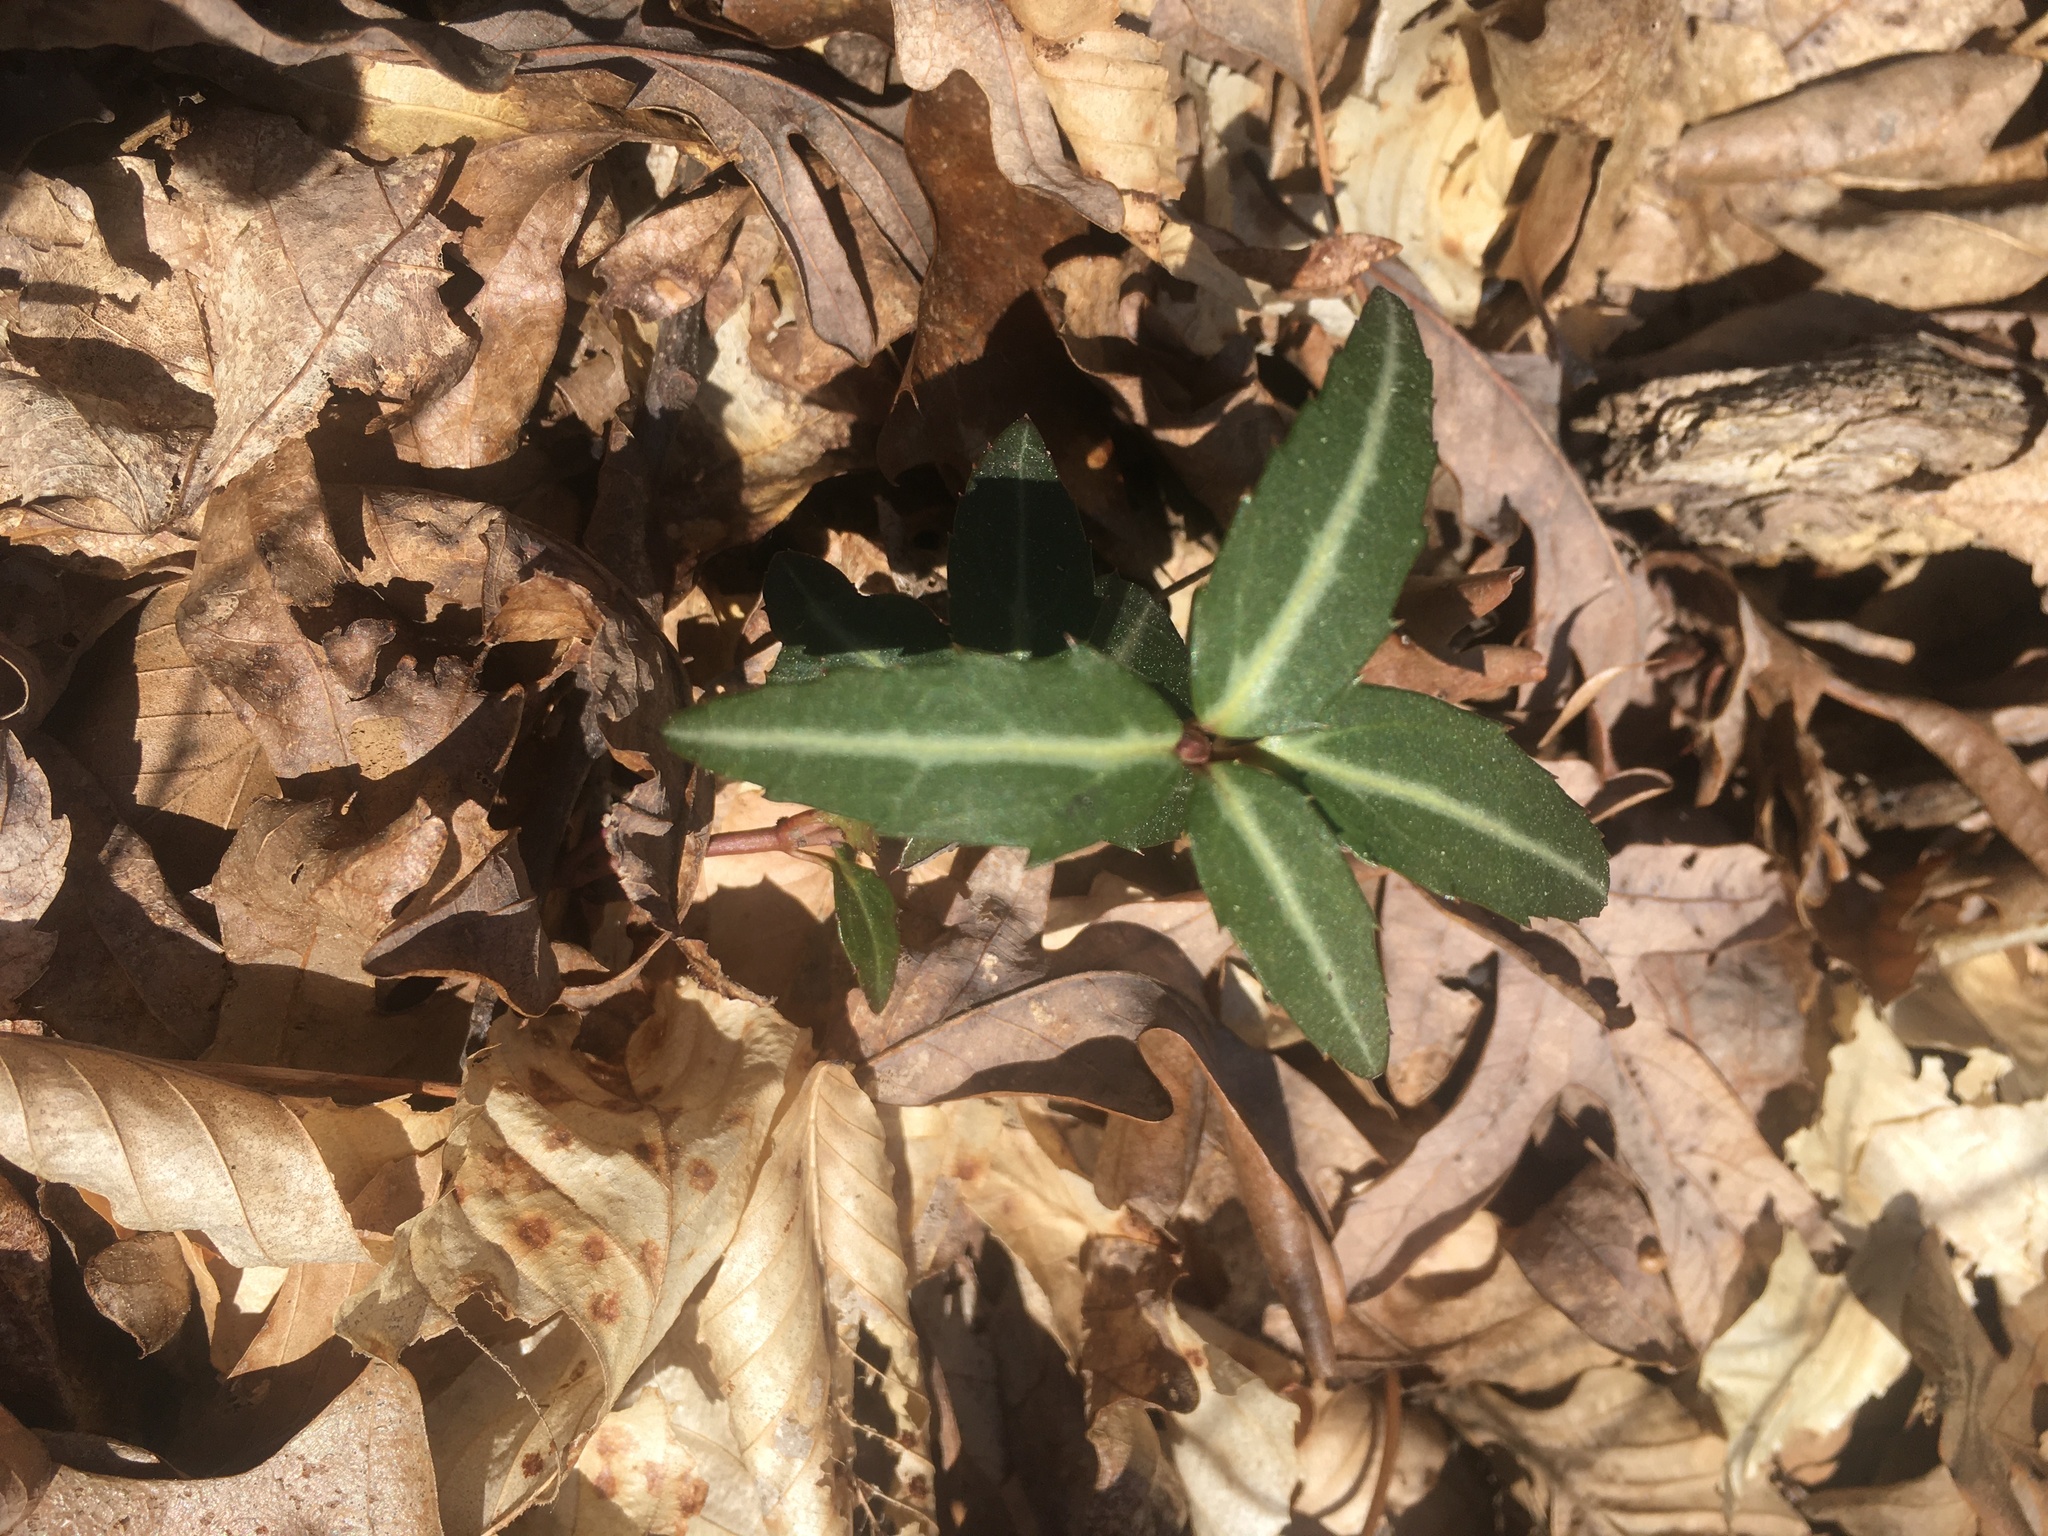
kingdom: Plantae
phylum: Tracheophyta
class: Magnoliopsida
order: Ericales
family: Ericaceae
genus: Chimaphila
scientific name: Chimaphila maculata
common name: Spotted pipsissewa
